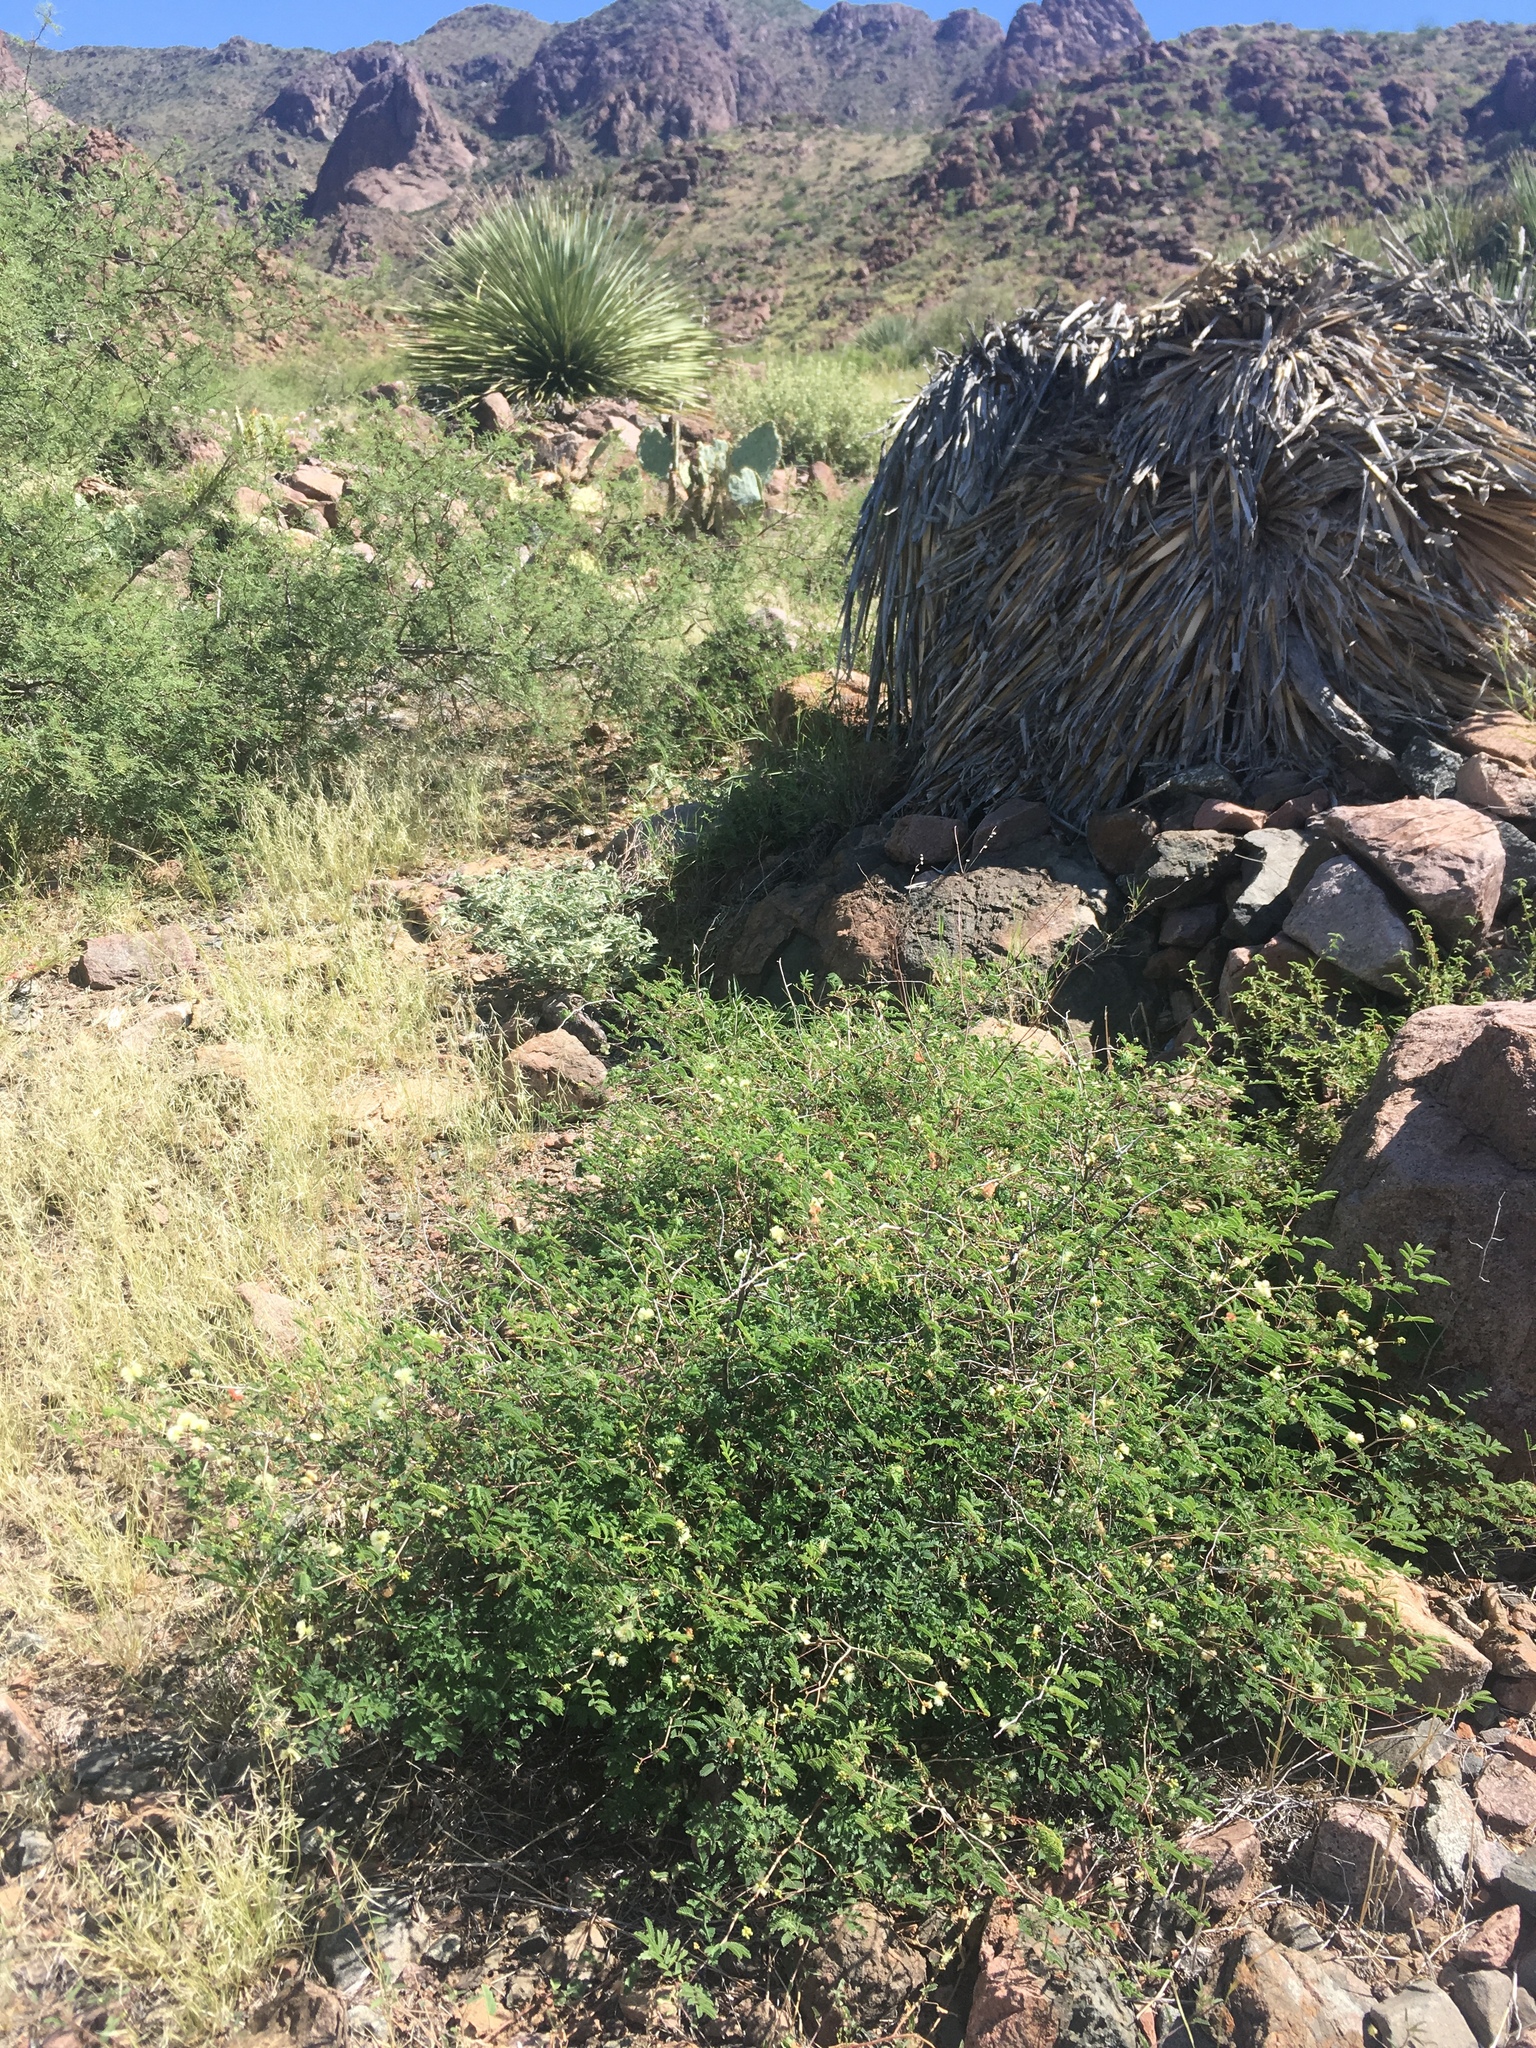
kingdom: Plantae
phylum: Tracheophyta
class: Magnoliopsida
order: Fabales
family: Fabaceae
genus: Acaciella
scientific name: Acaciella angustissima
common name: Prairie acacia
